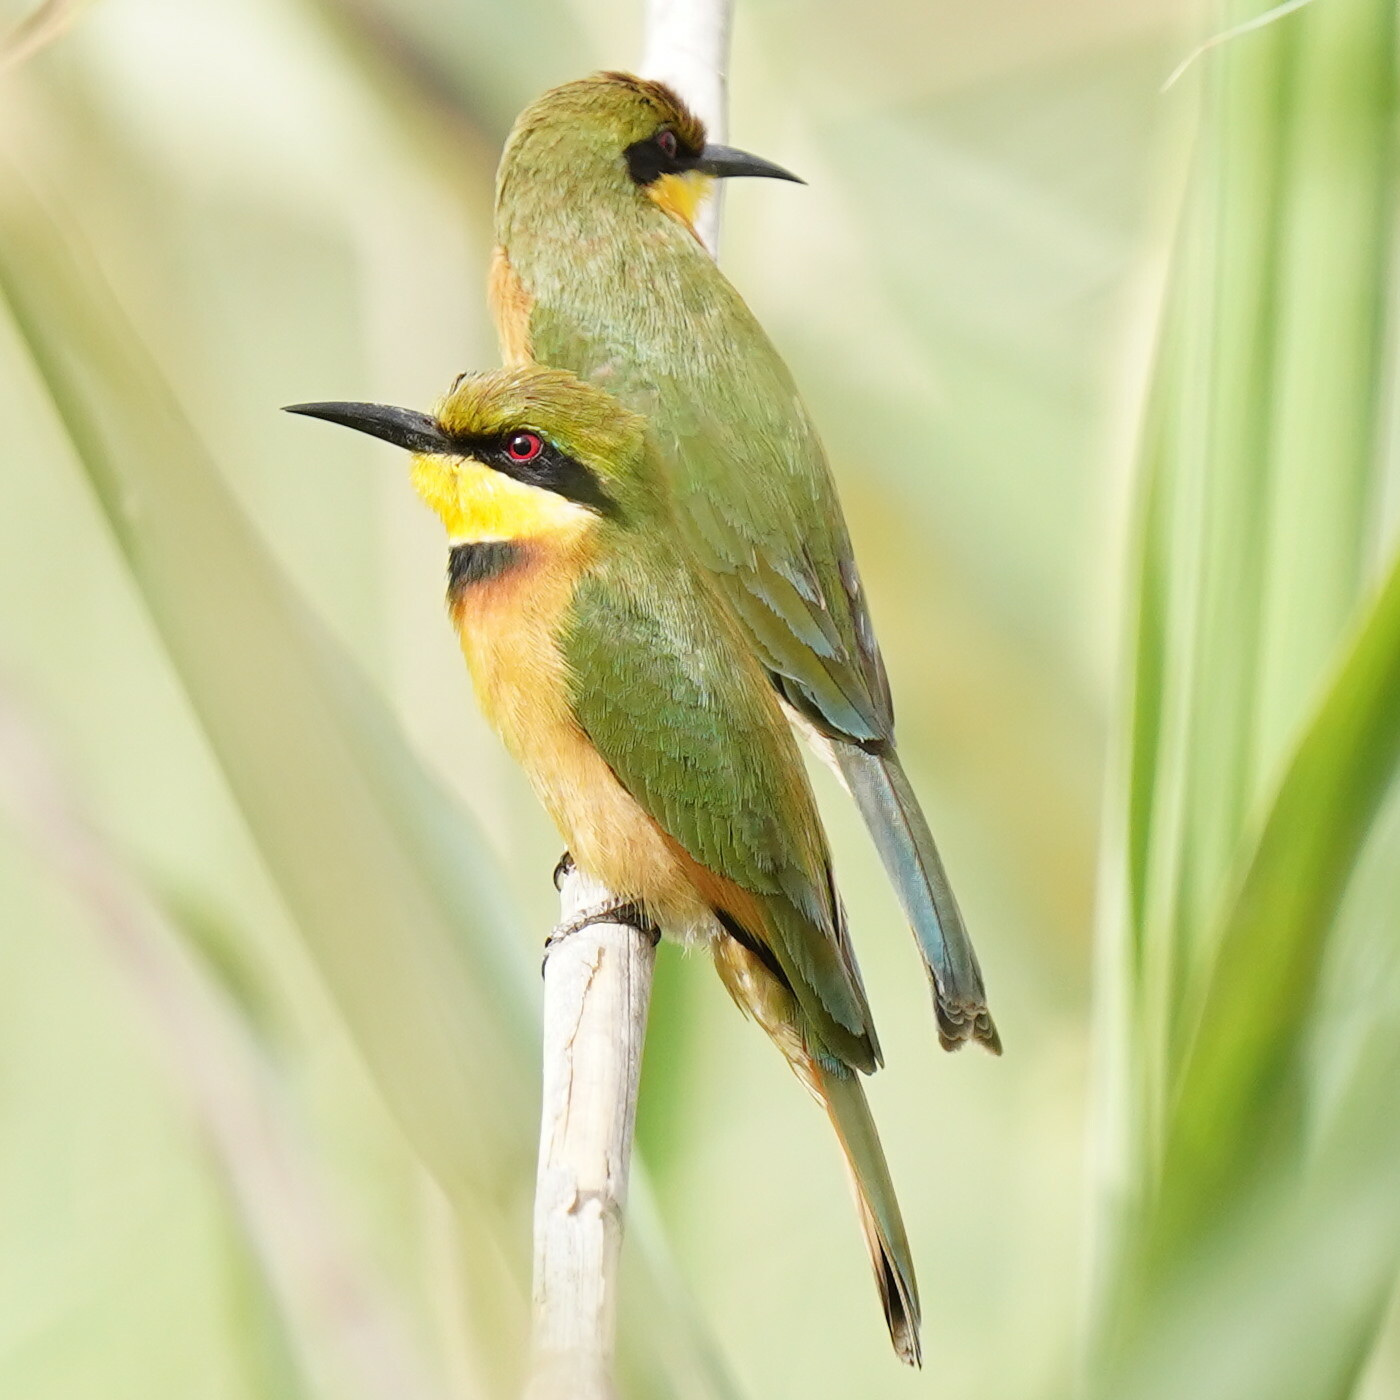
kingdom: Animalia
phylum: Chordata
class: Aves
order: Coraciiformes
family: Meropidae
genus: Merops
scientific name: Merops pusillus
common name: Little bee-eater
